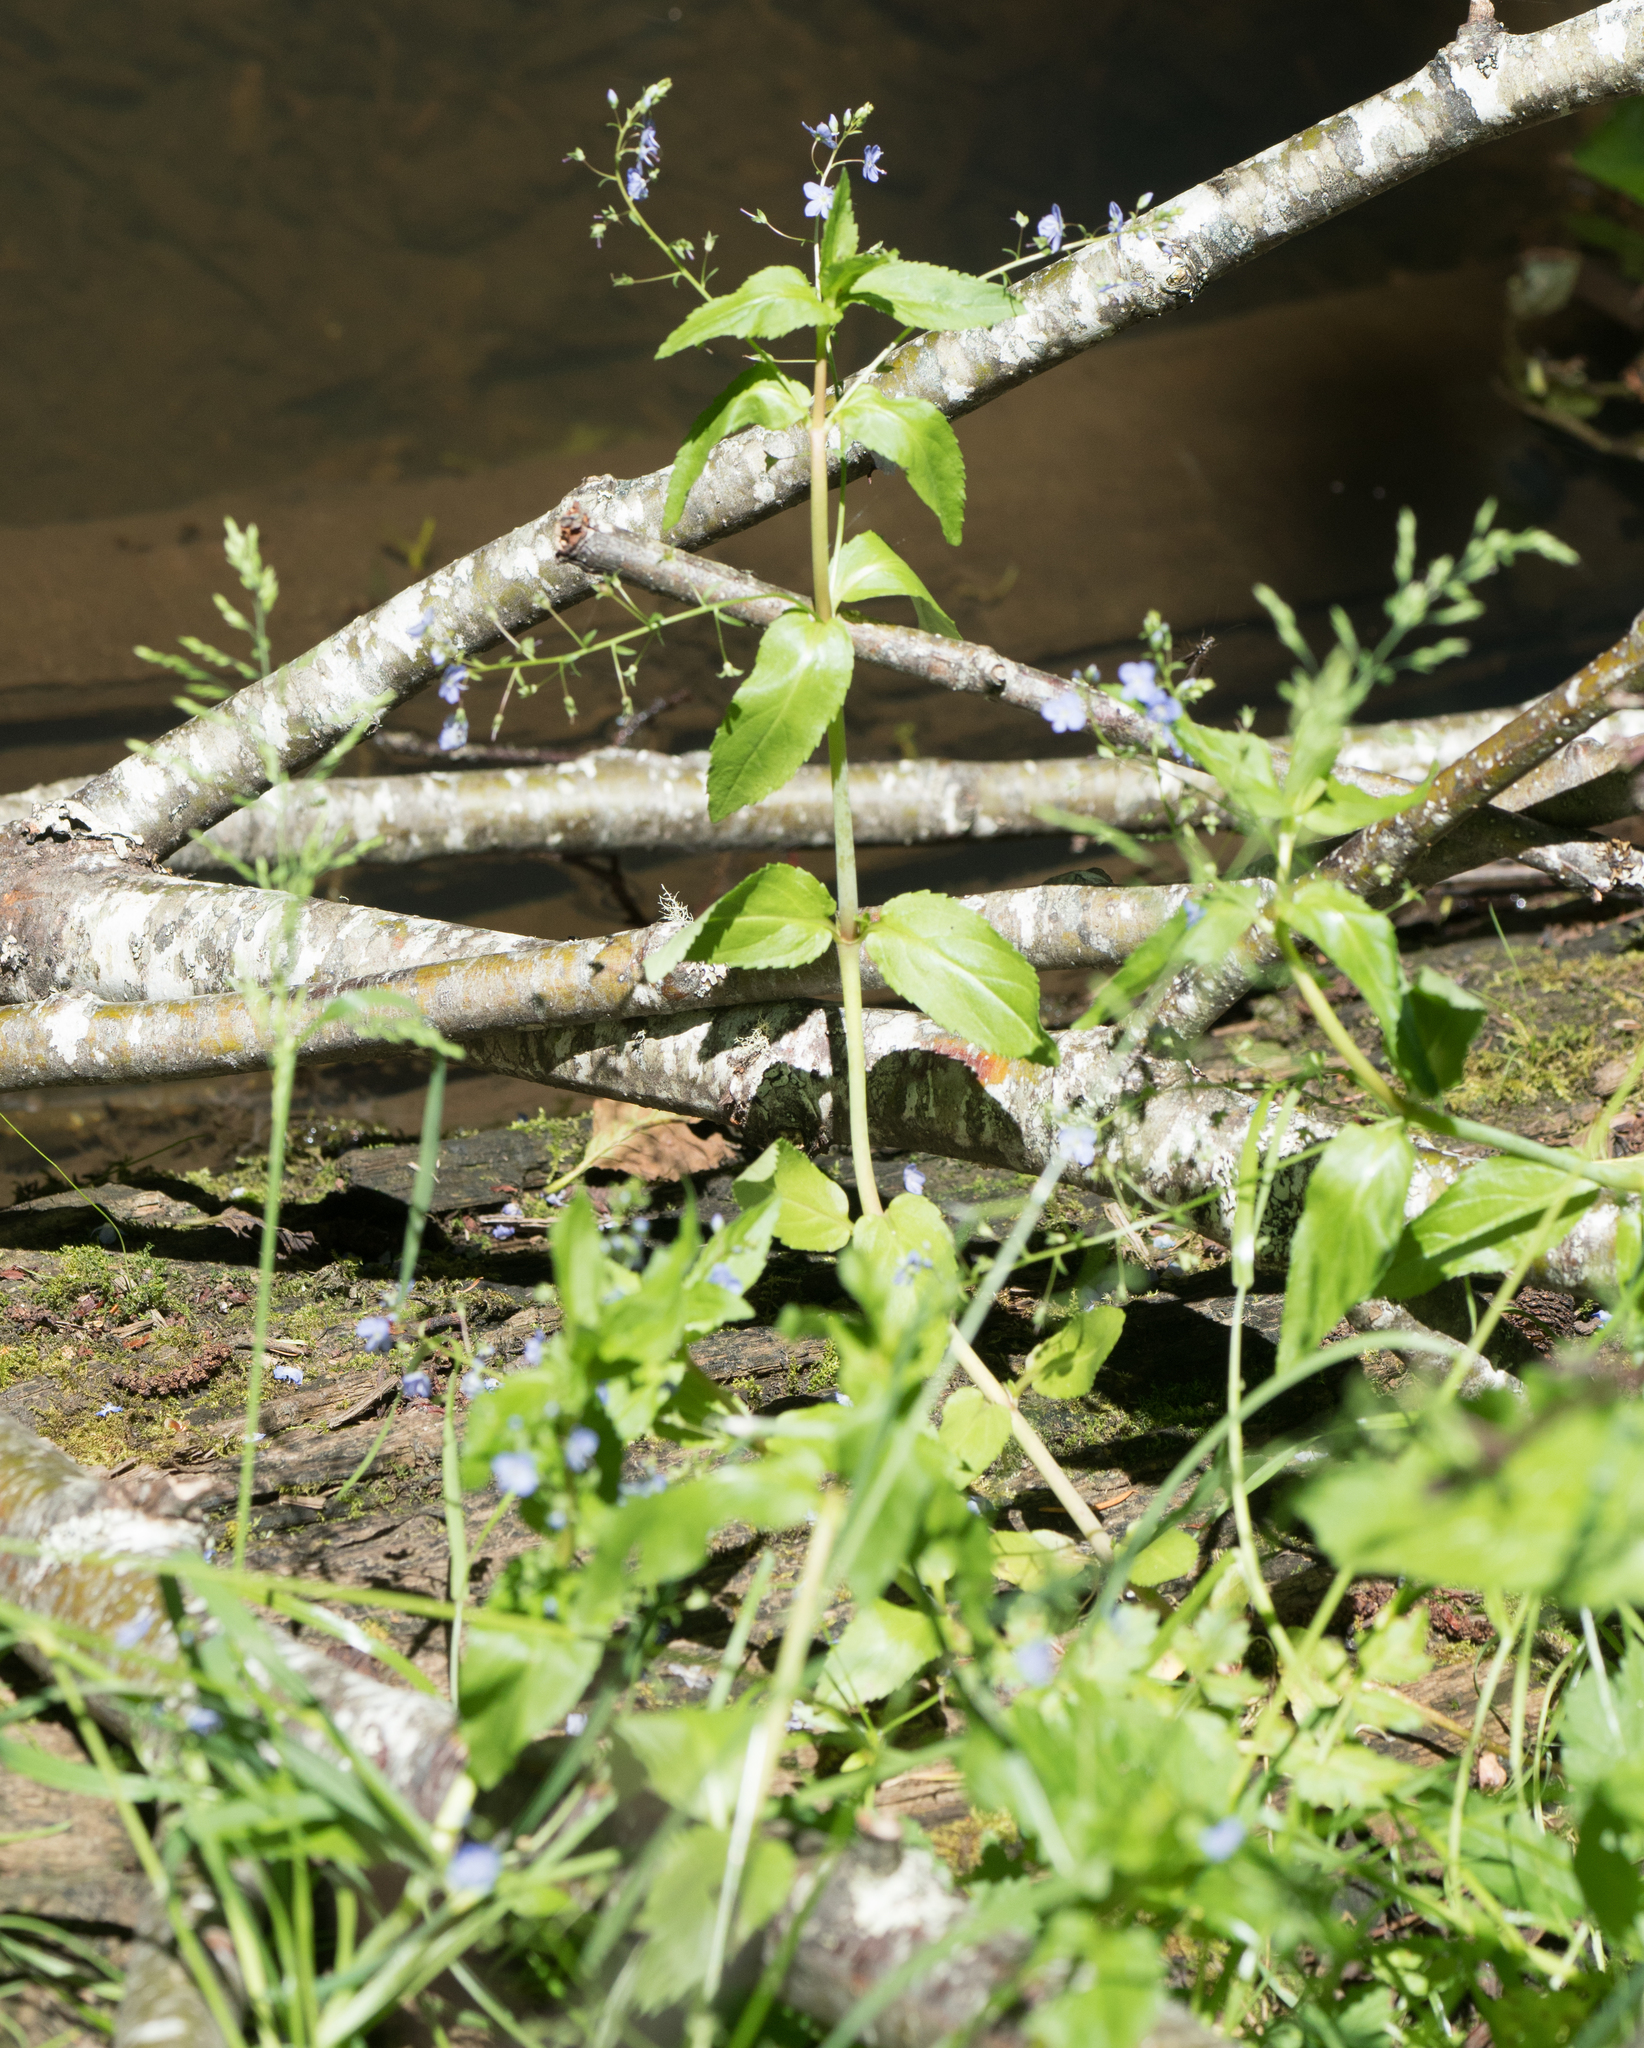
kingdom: Plantae
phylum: Tracheophyta
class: Magnoliopsida
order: Lamiales
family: Plantaginaceae
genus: Veronica
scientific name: Veronica americana
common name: American brooklime
